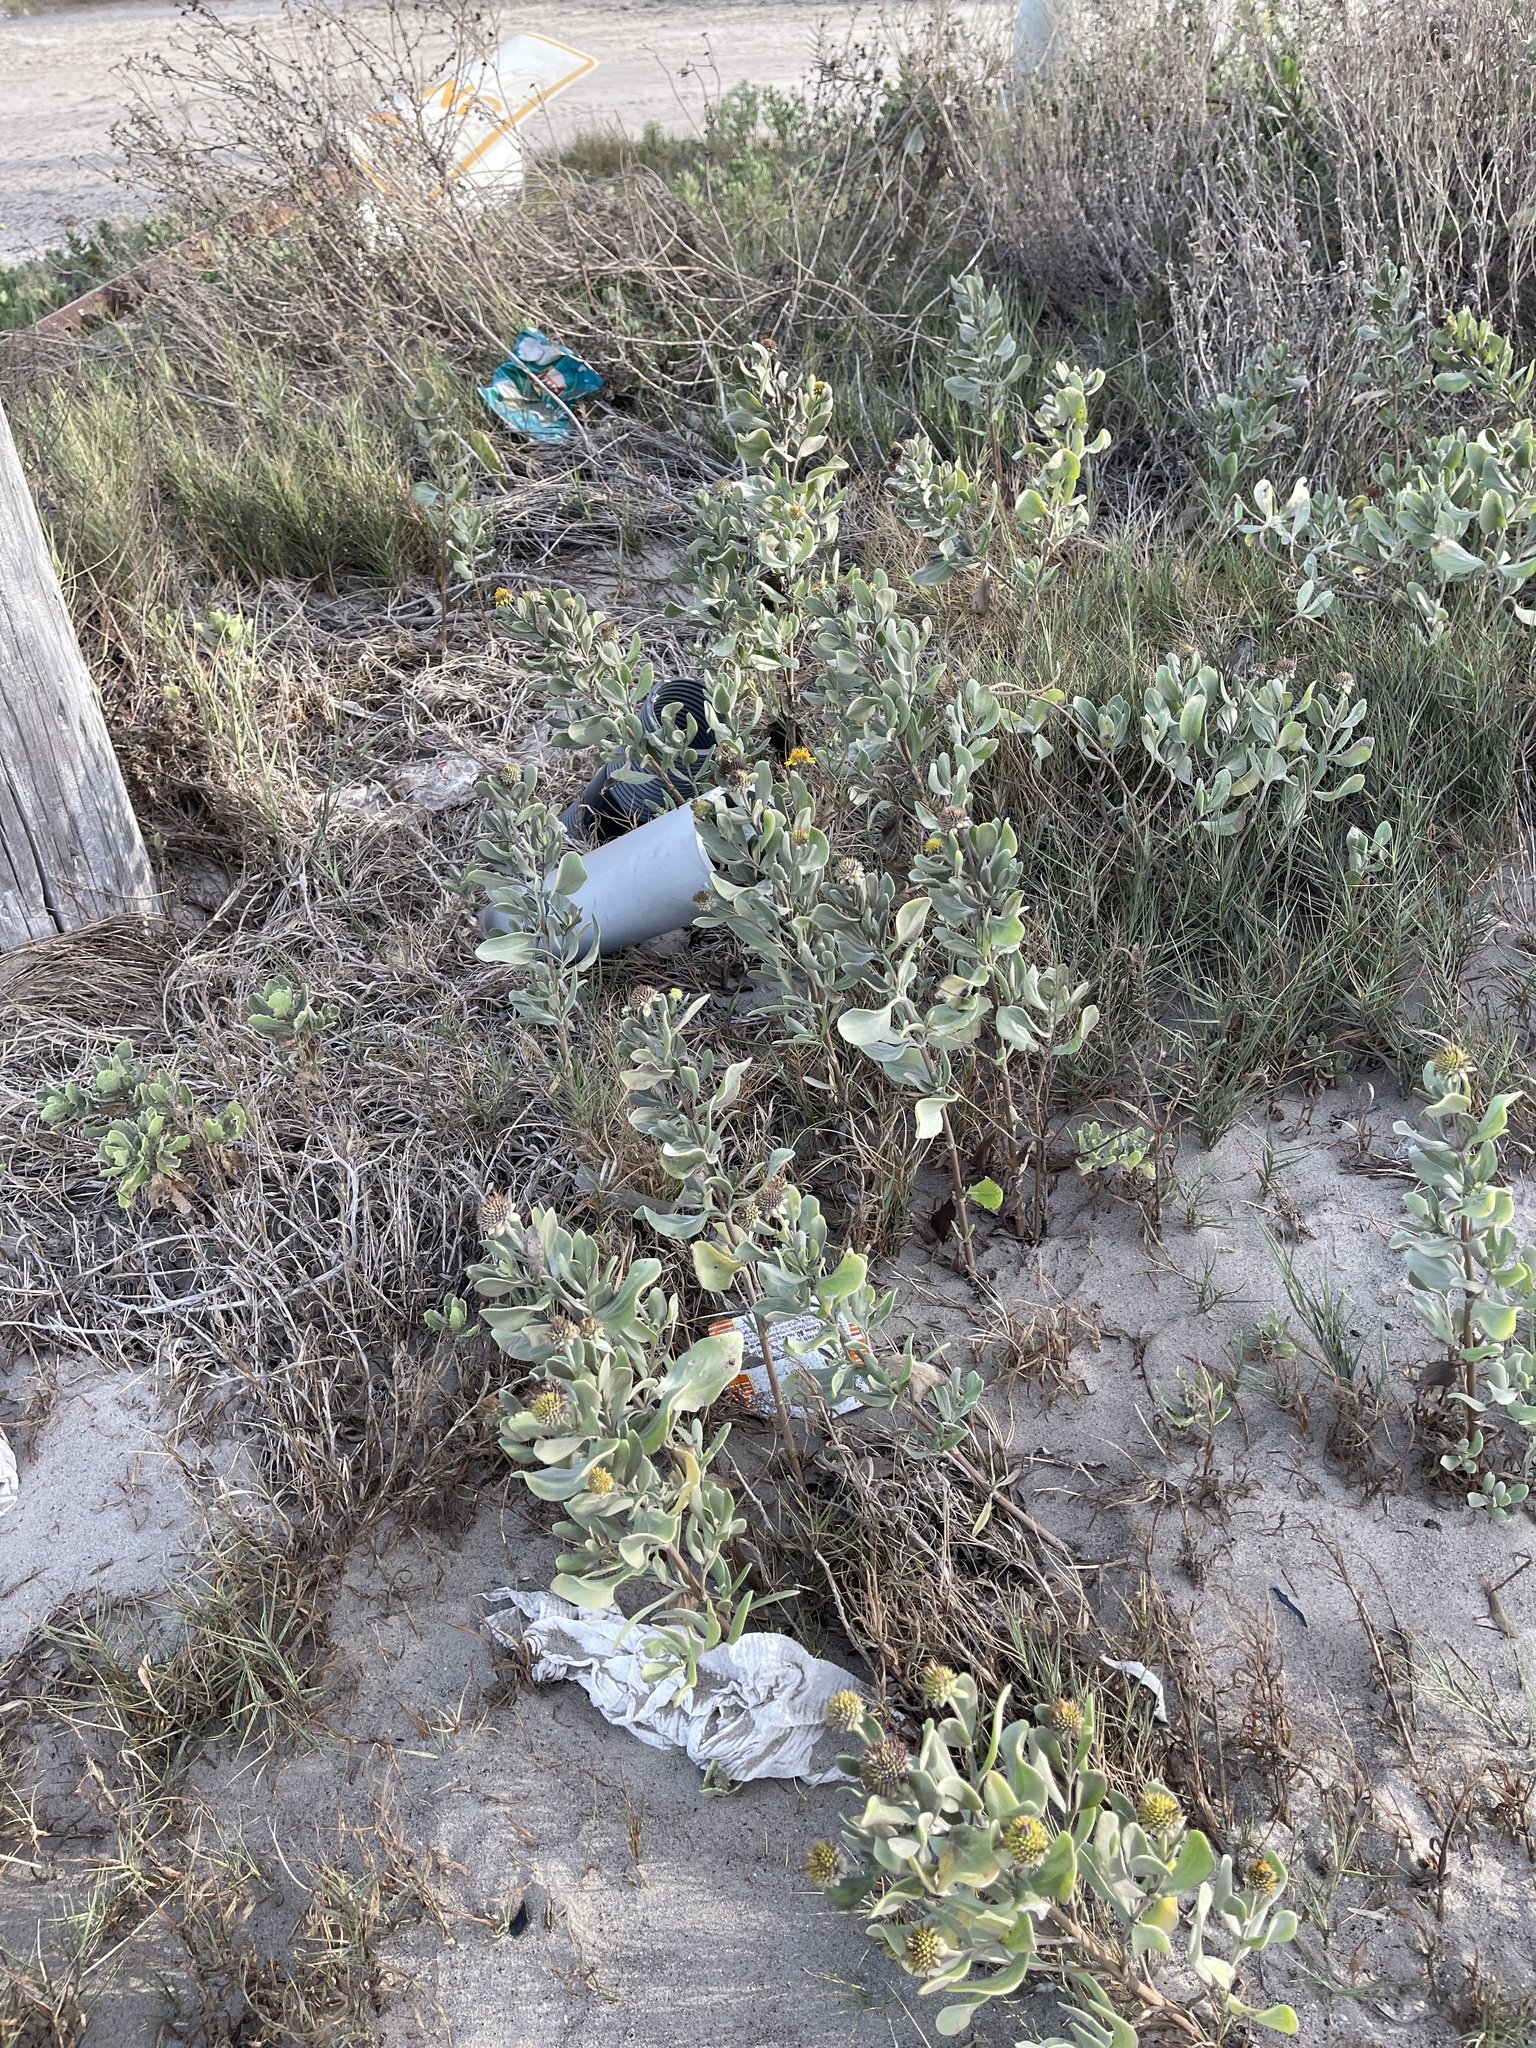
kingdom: Plantae
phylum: Tracheophyta
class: Magnoliopsida
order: Asterales
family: Asteraceae
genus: Borrichia
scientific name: Borrichia frutescens
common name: Sea oxeye
